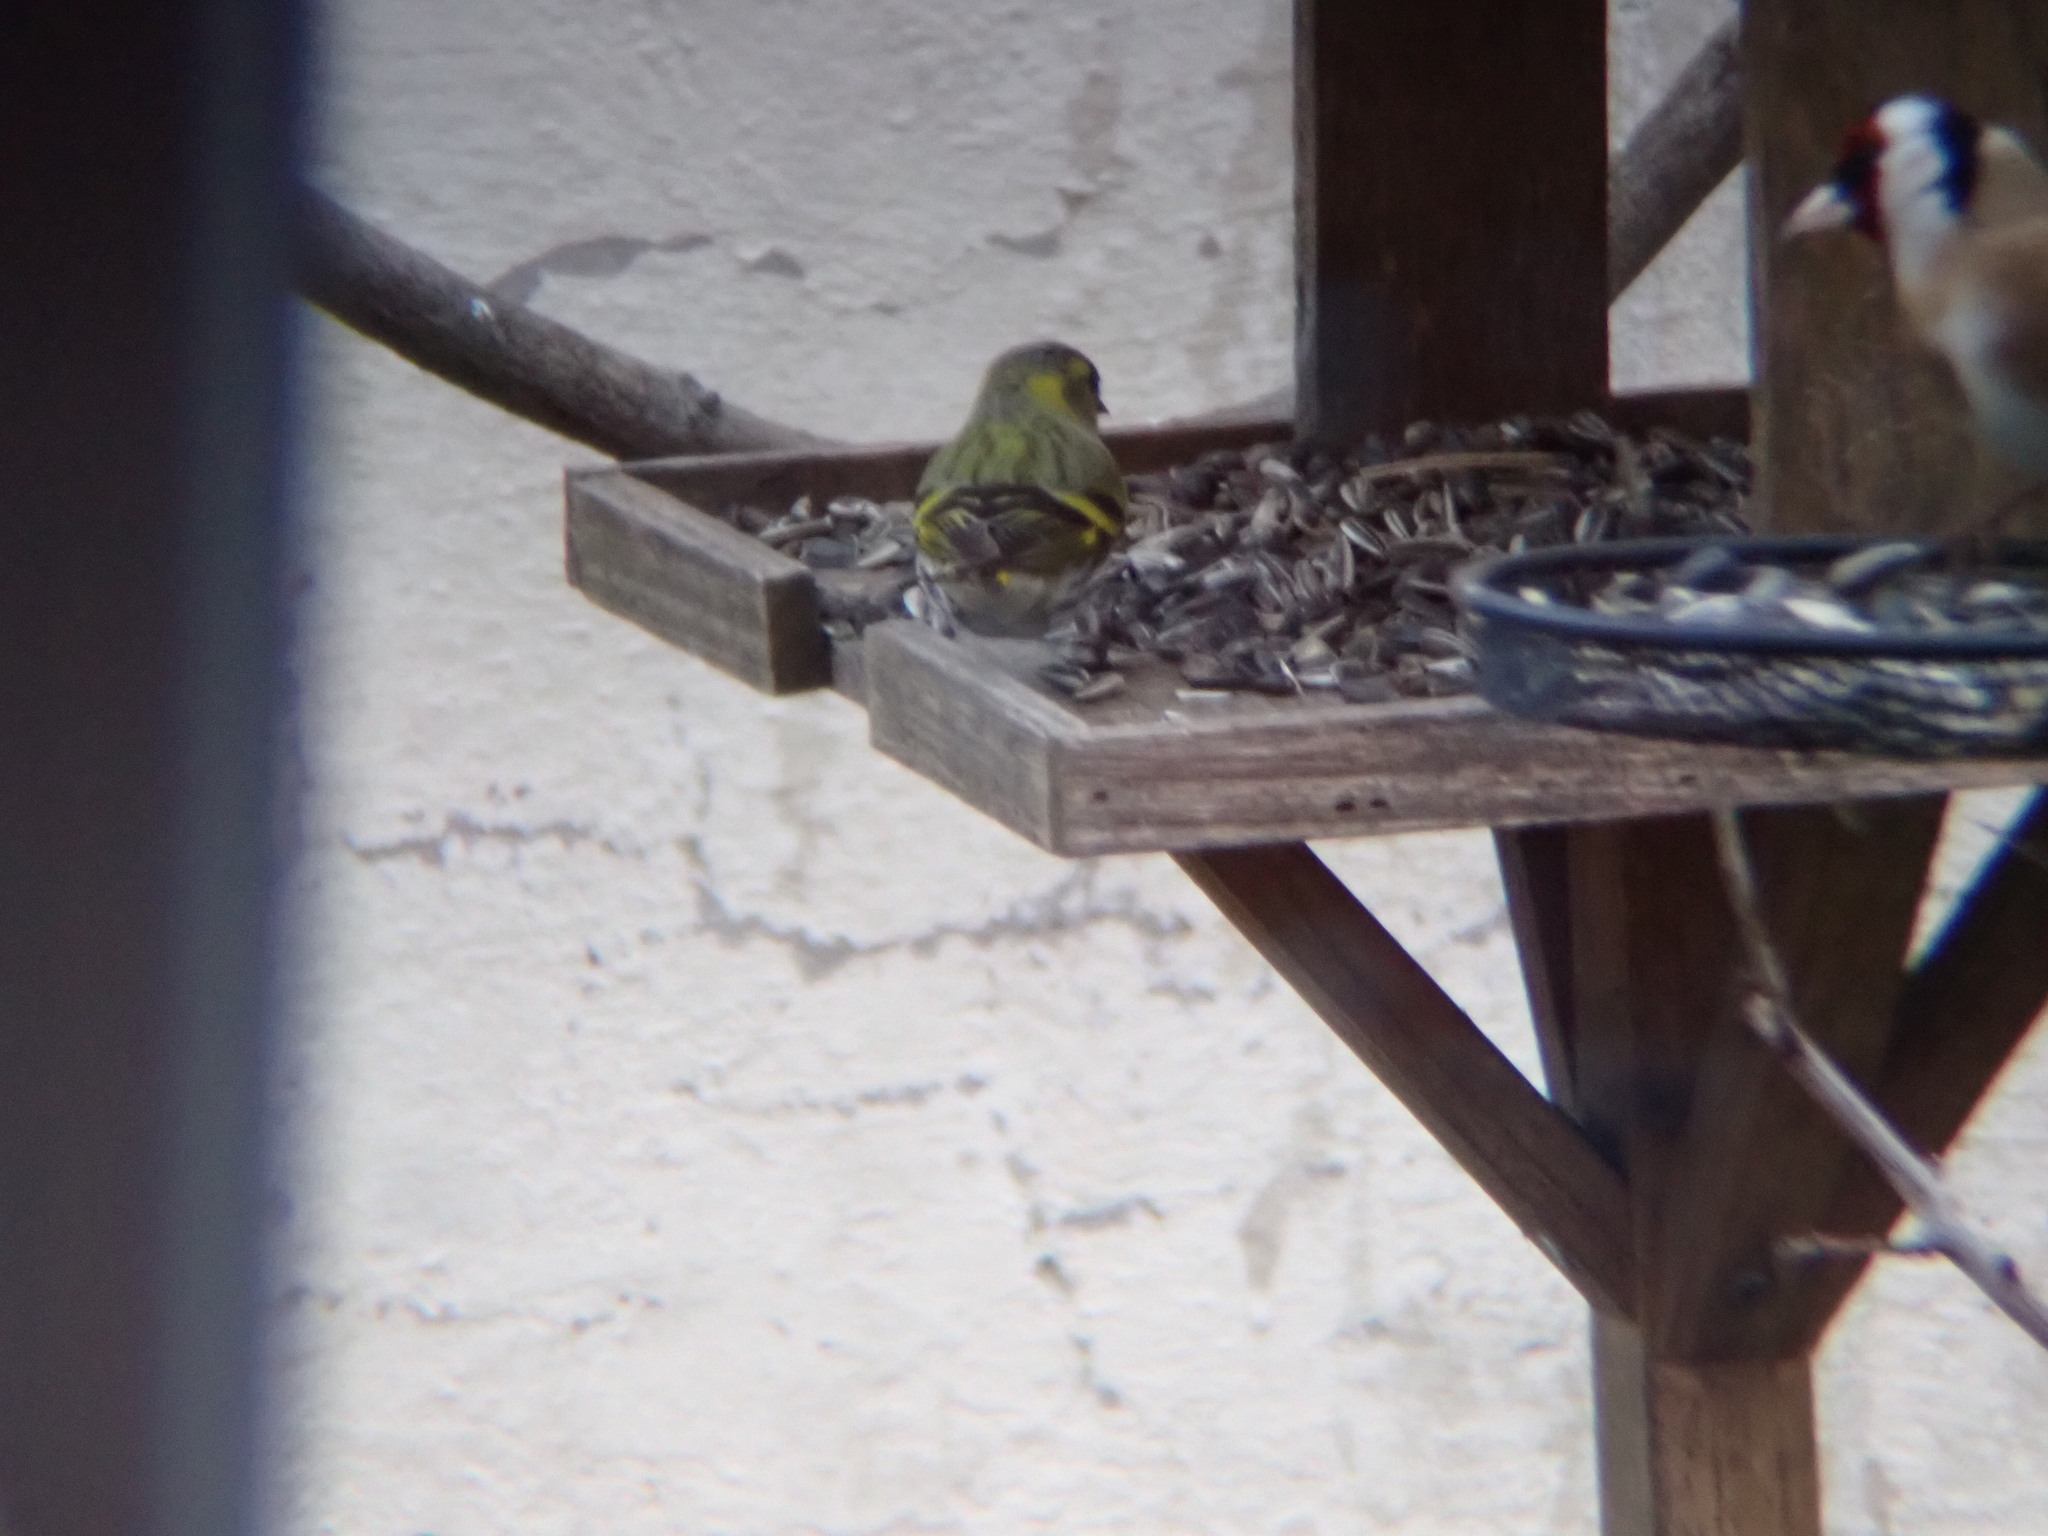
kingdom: Animalia
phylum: Chordata
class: Aves
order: Passeriformes
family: Fringillidae
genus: Spinus
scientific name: Spinus spinus
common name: Eurasian siskin
